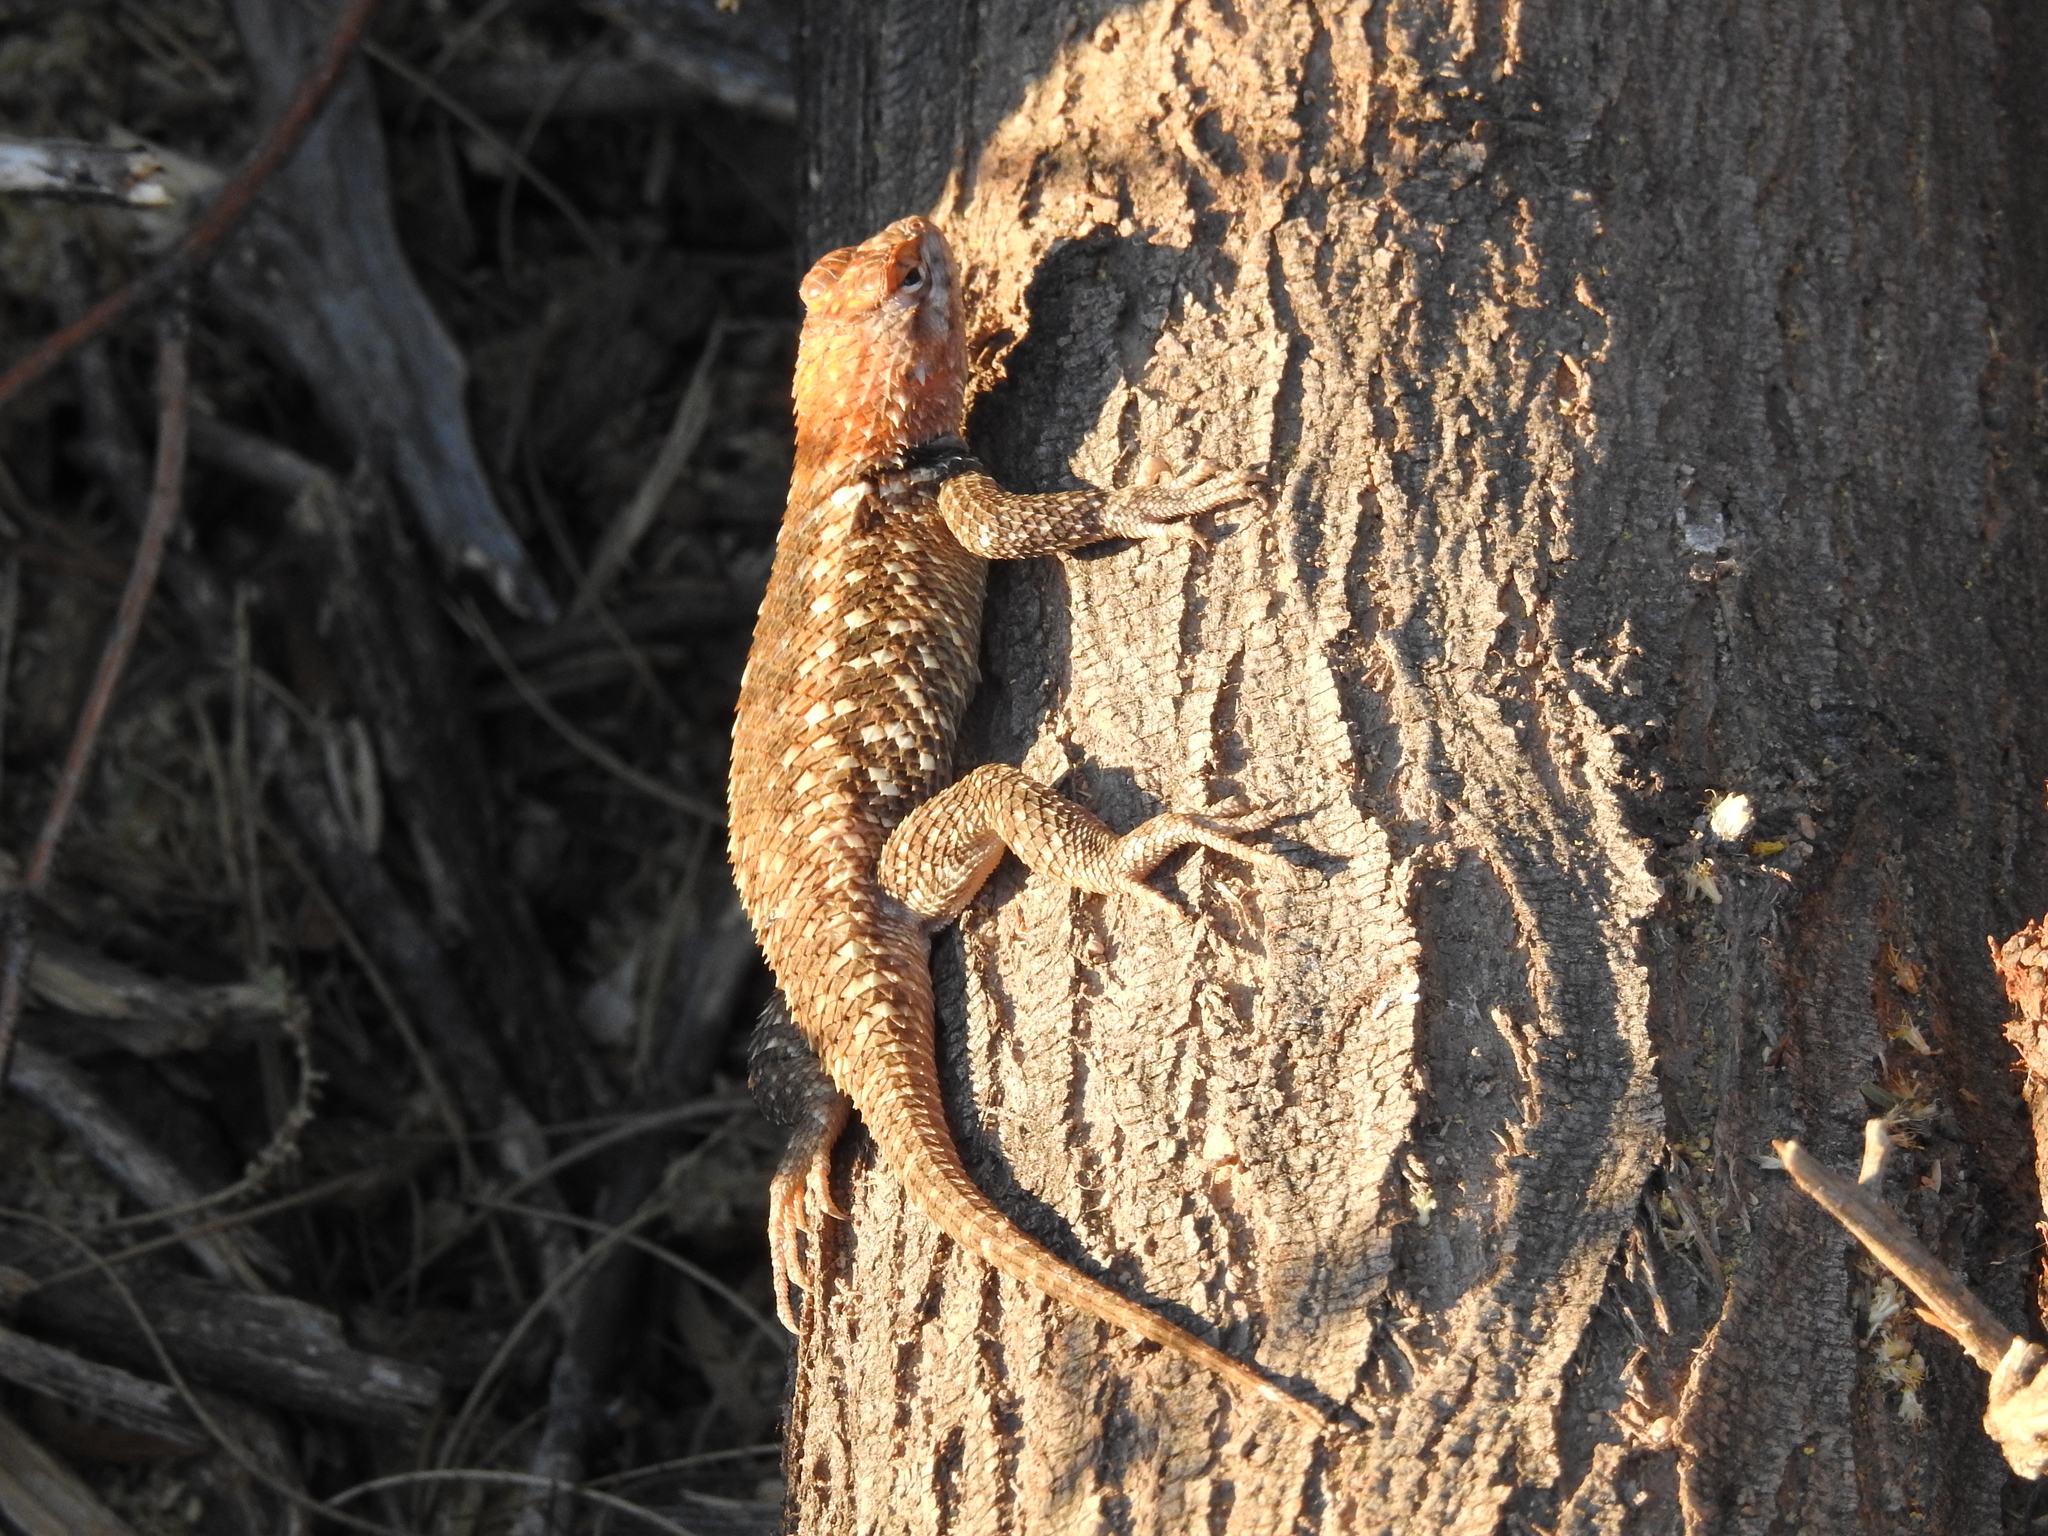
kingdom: Animalia
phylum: Chordata
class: Squamata
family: Phrynosomatidae
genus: Sceloporus
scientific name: Sceloporus magister
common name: Desert spiny lizard
